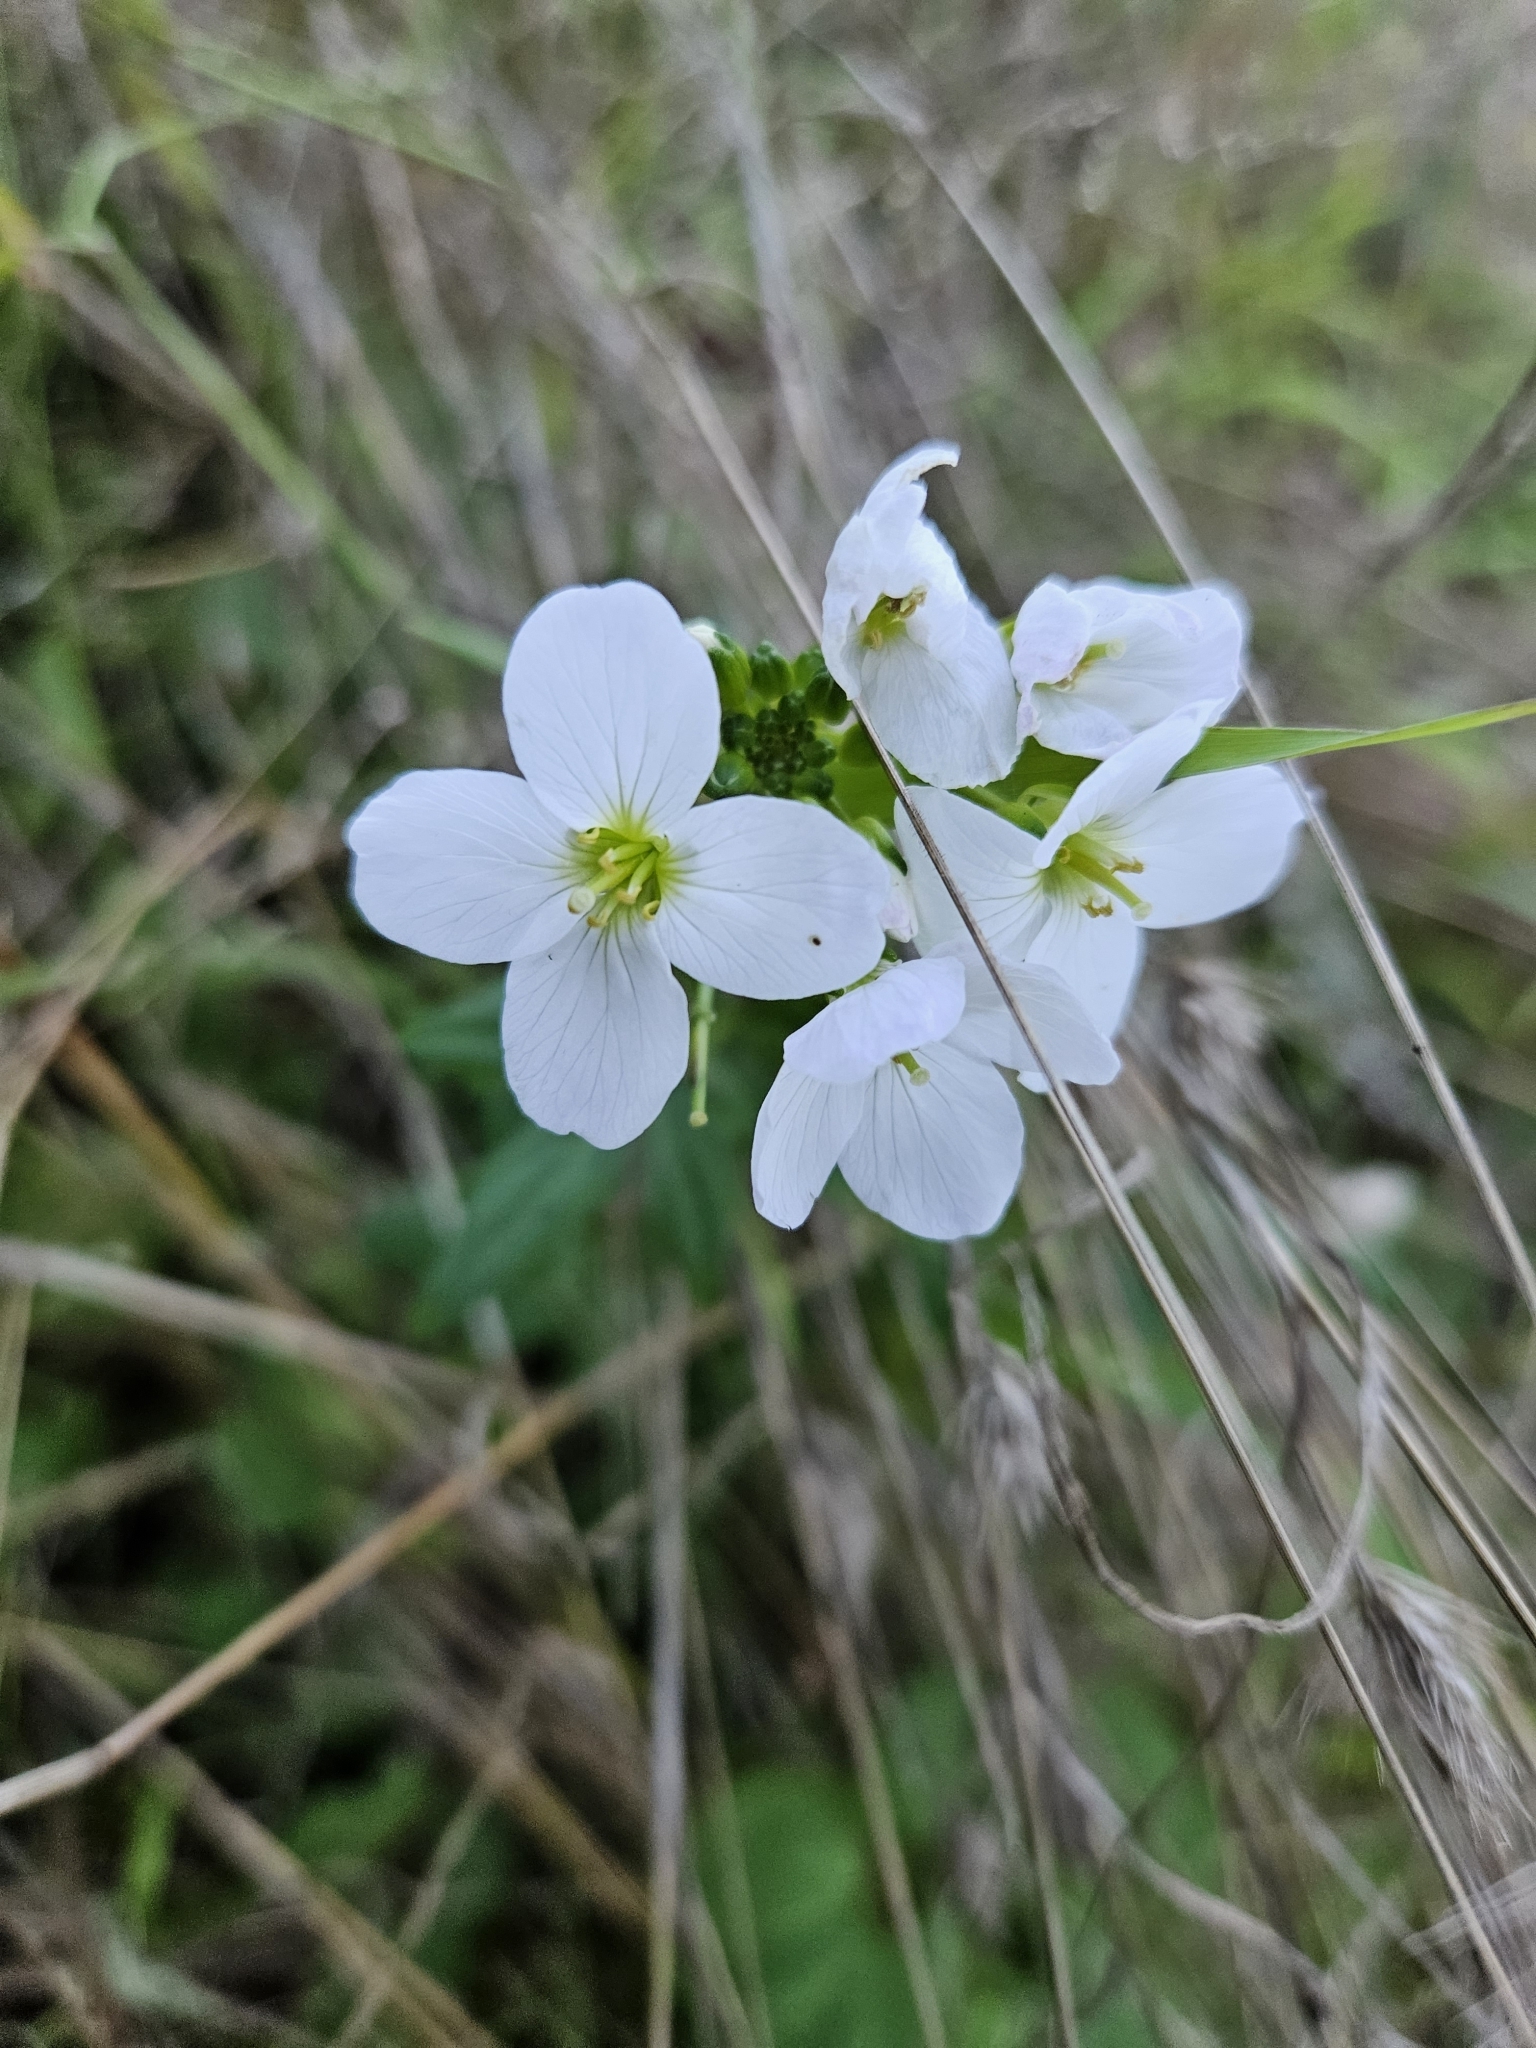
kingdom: Plantae
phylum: Tracheophyta
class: Magnoliopsida
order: Brassicales
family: Brassicaceae
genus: Cardamine
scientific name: Cardamine californica
